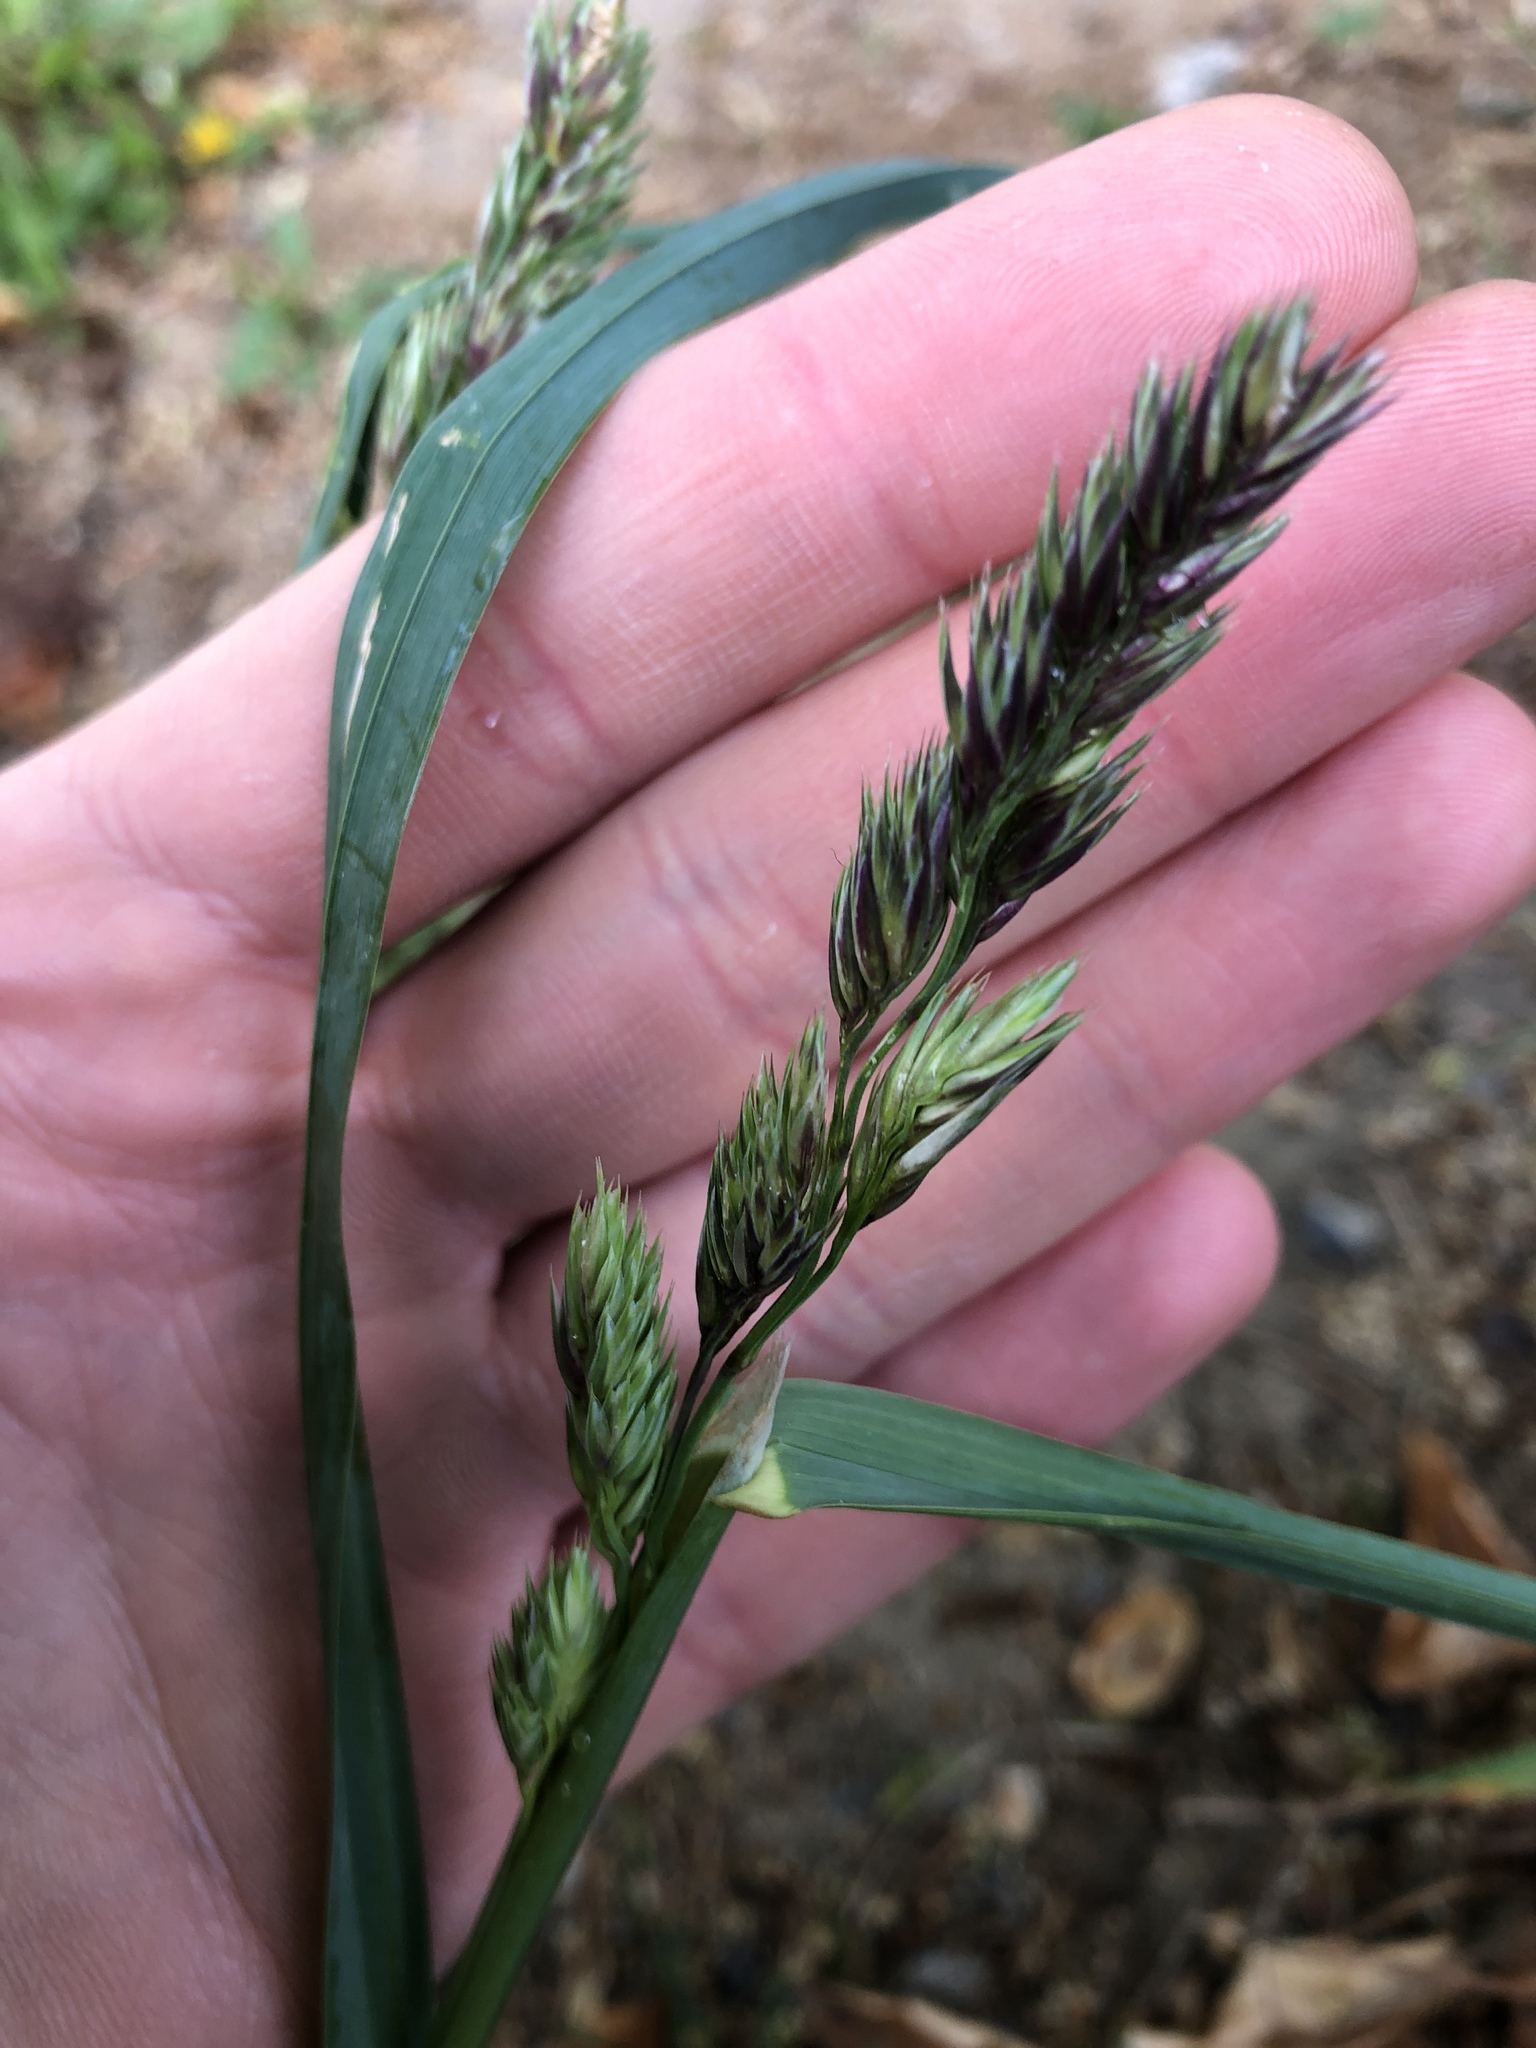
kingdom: Plantae
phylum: Tracheophyta
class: Liliopsida
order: Poales
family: Poaceae
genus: Dactylis
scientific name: Dactylis glomerata
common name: Orchardgrass
